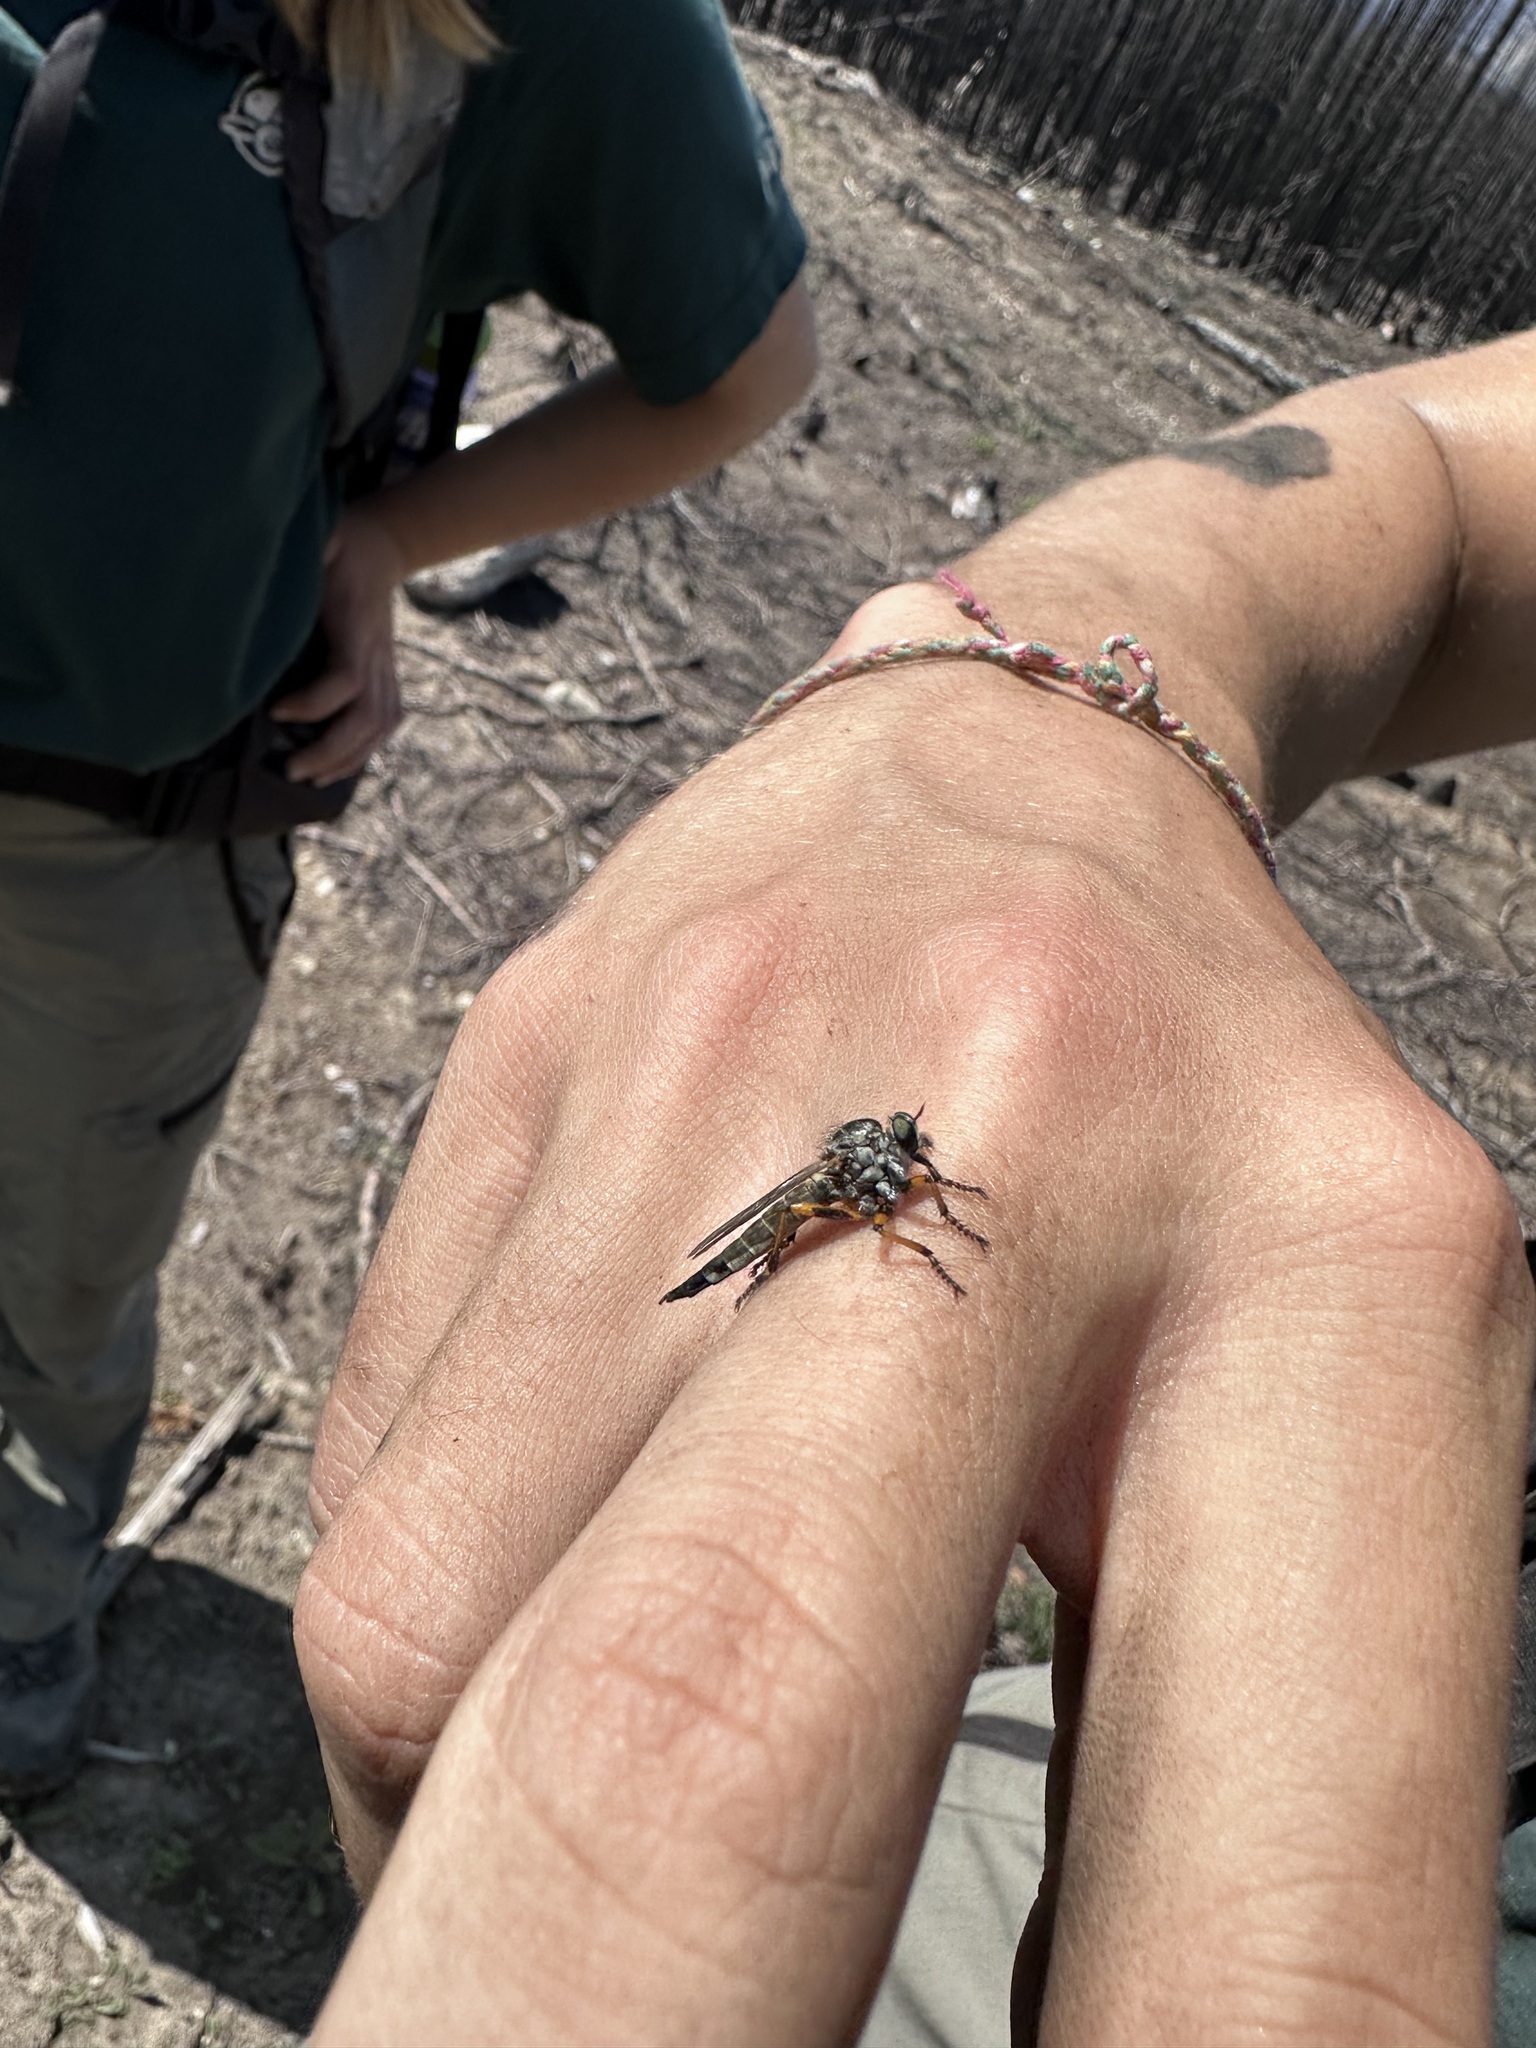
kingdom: Animalia
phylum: Arthropoda
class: Insecta
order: Diptera
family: Asilidae
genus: Nevadasilus
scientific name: Nevadasilus auriannulatus
